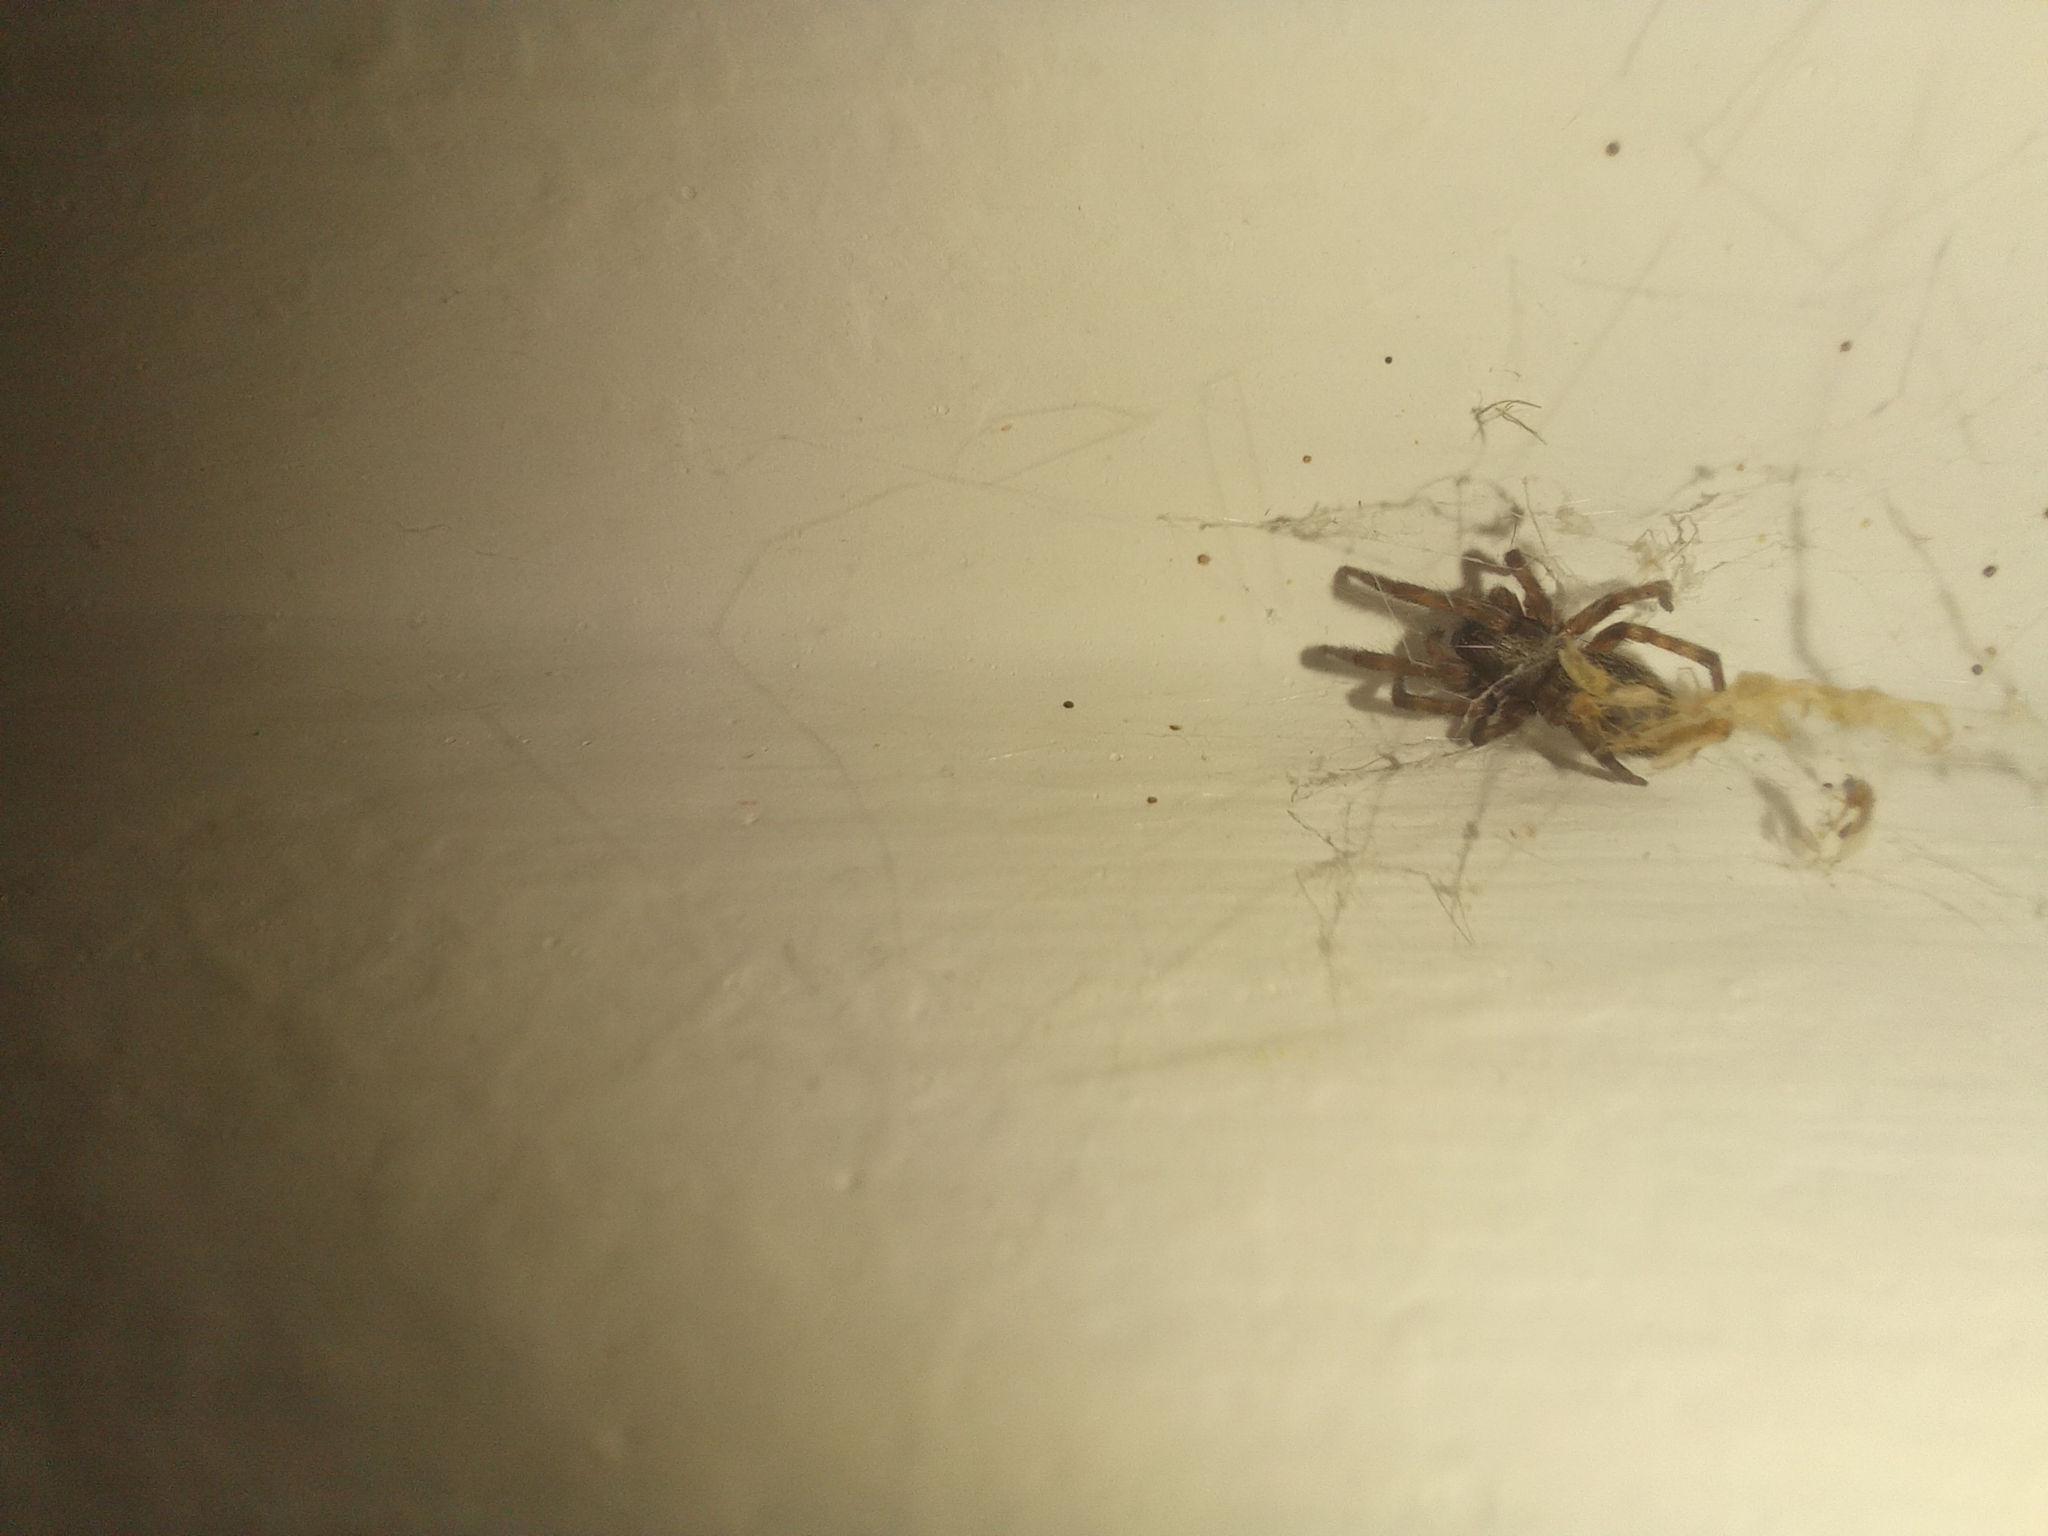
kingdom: Animalia
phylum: Arthropoda
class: Arachnida
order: Araneae
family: Desidae
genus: Badumna
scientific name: Badumna longinqua
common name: Gray house spider
